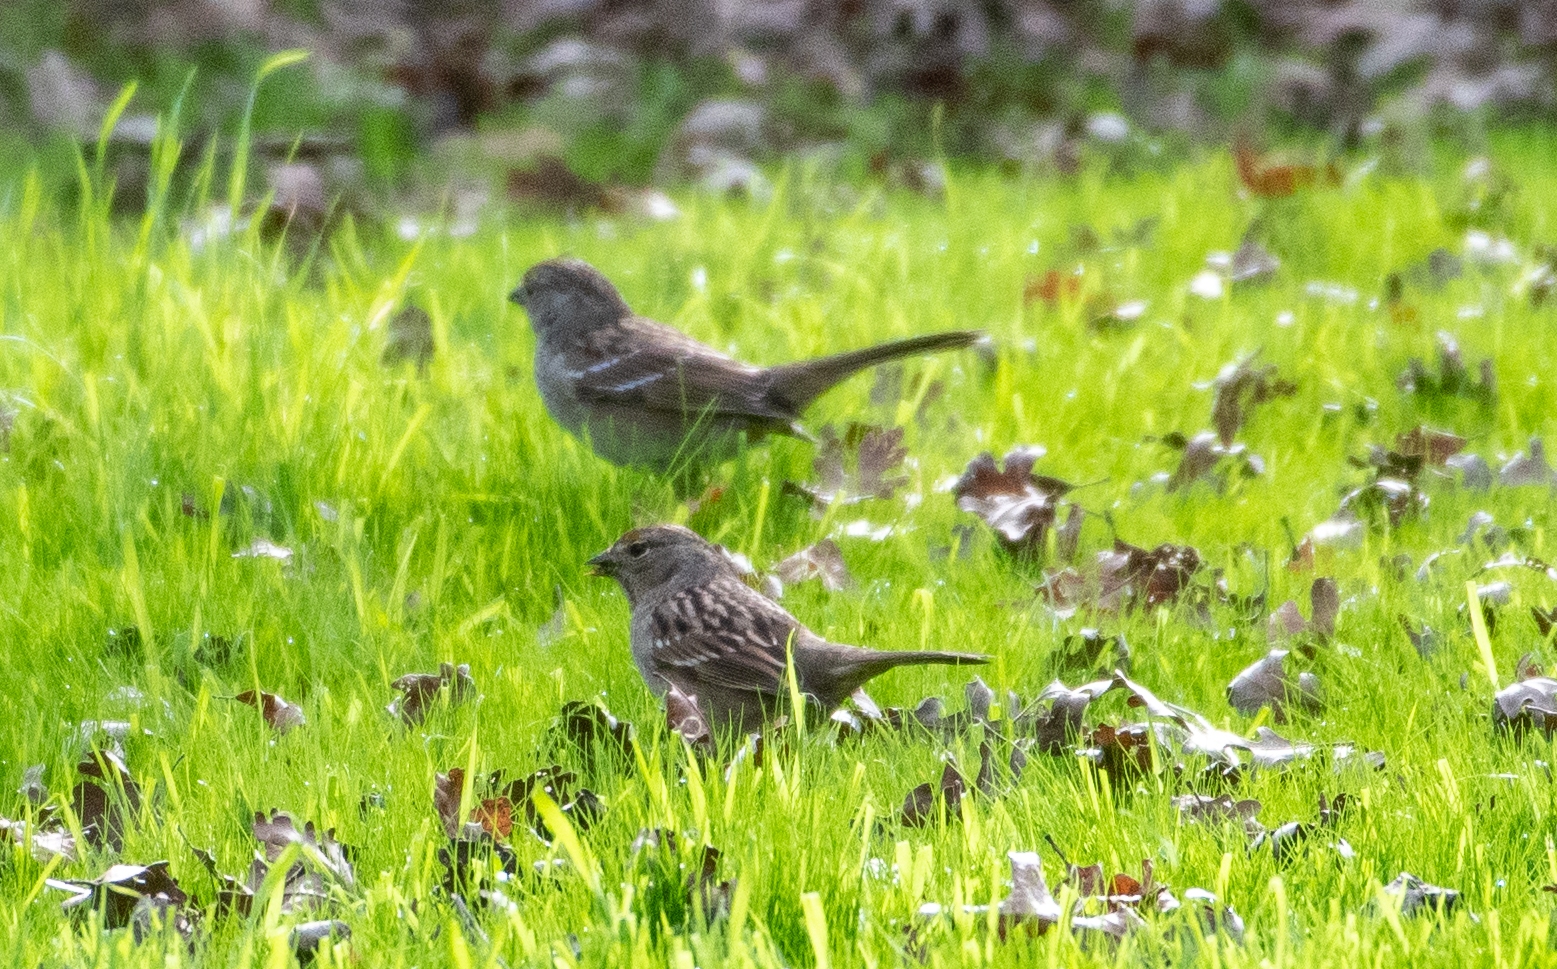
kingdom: Animalia
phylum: Chordata
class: Aves
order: Passeriformes
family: Passerellidae
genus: Zonotrichia
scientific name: Zonotrichia atricapilla
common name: Golden-crowned sparrow
